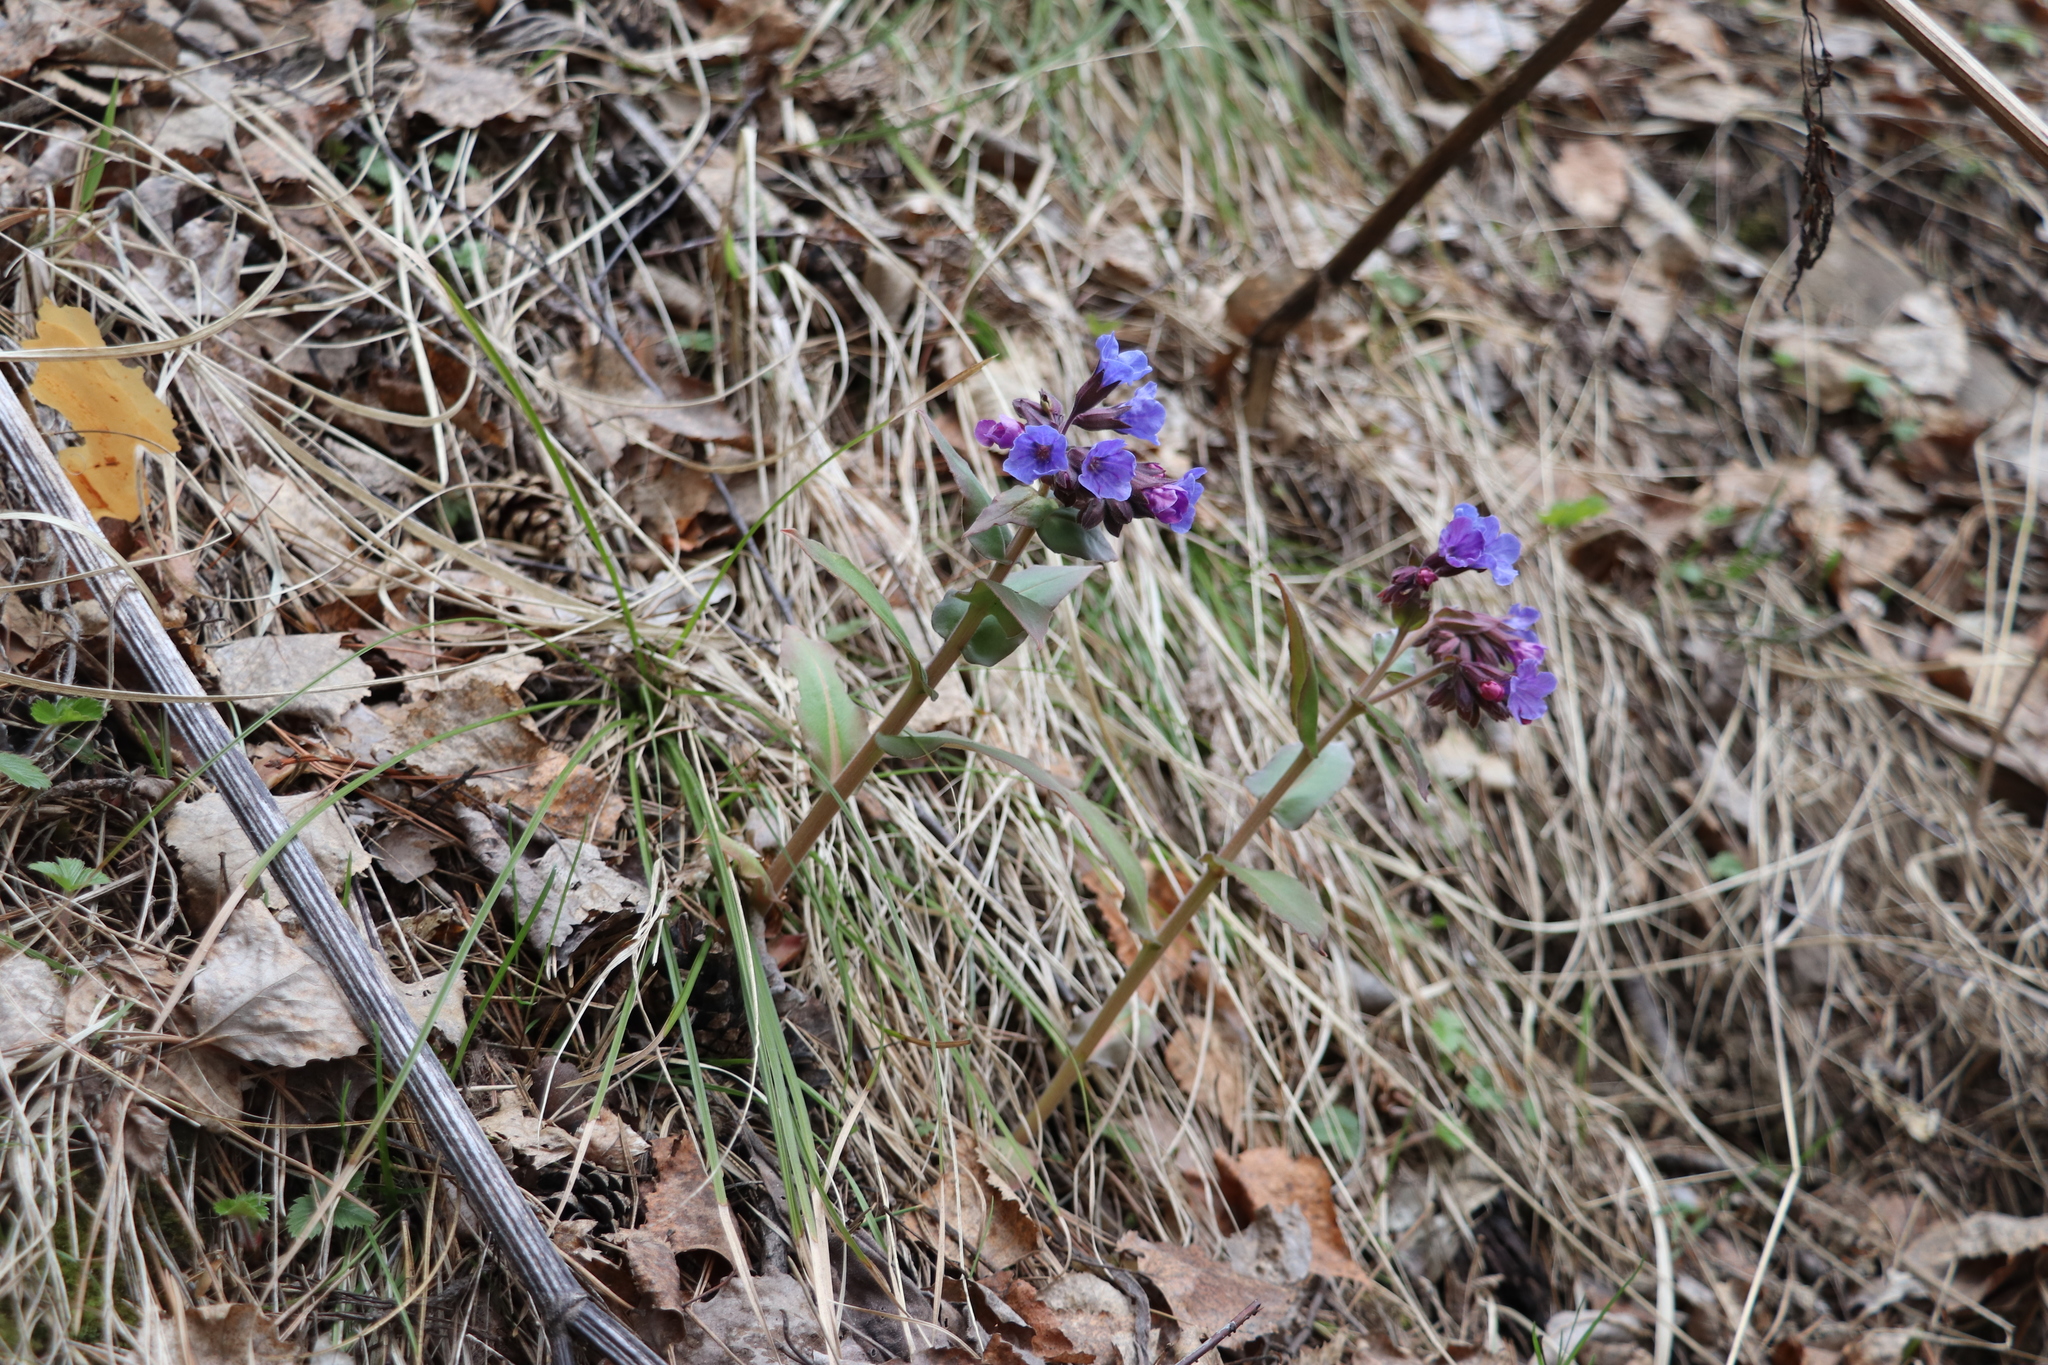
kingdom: Plantae
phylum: Tracheophyta
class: Magnoliopsida
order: Boraginales
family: Boraginaceae
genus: Pulmonaria
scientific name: Pulmonaria mollis
